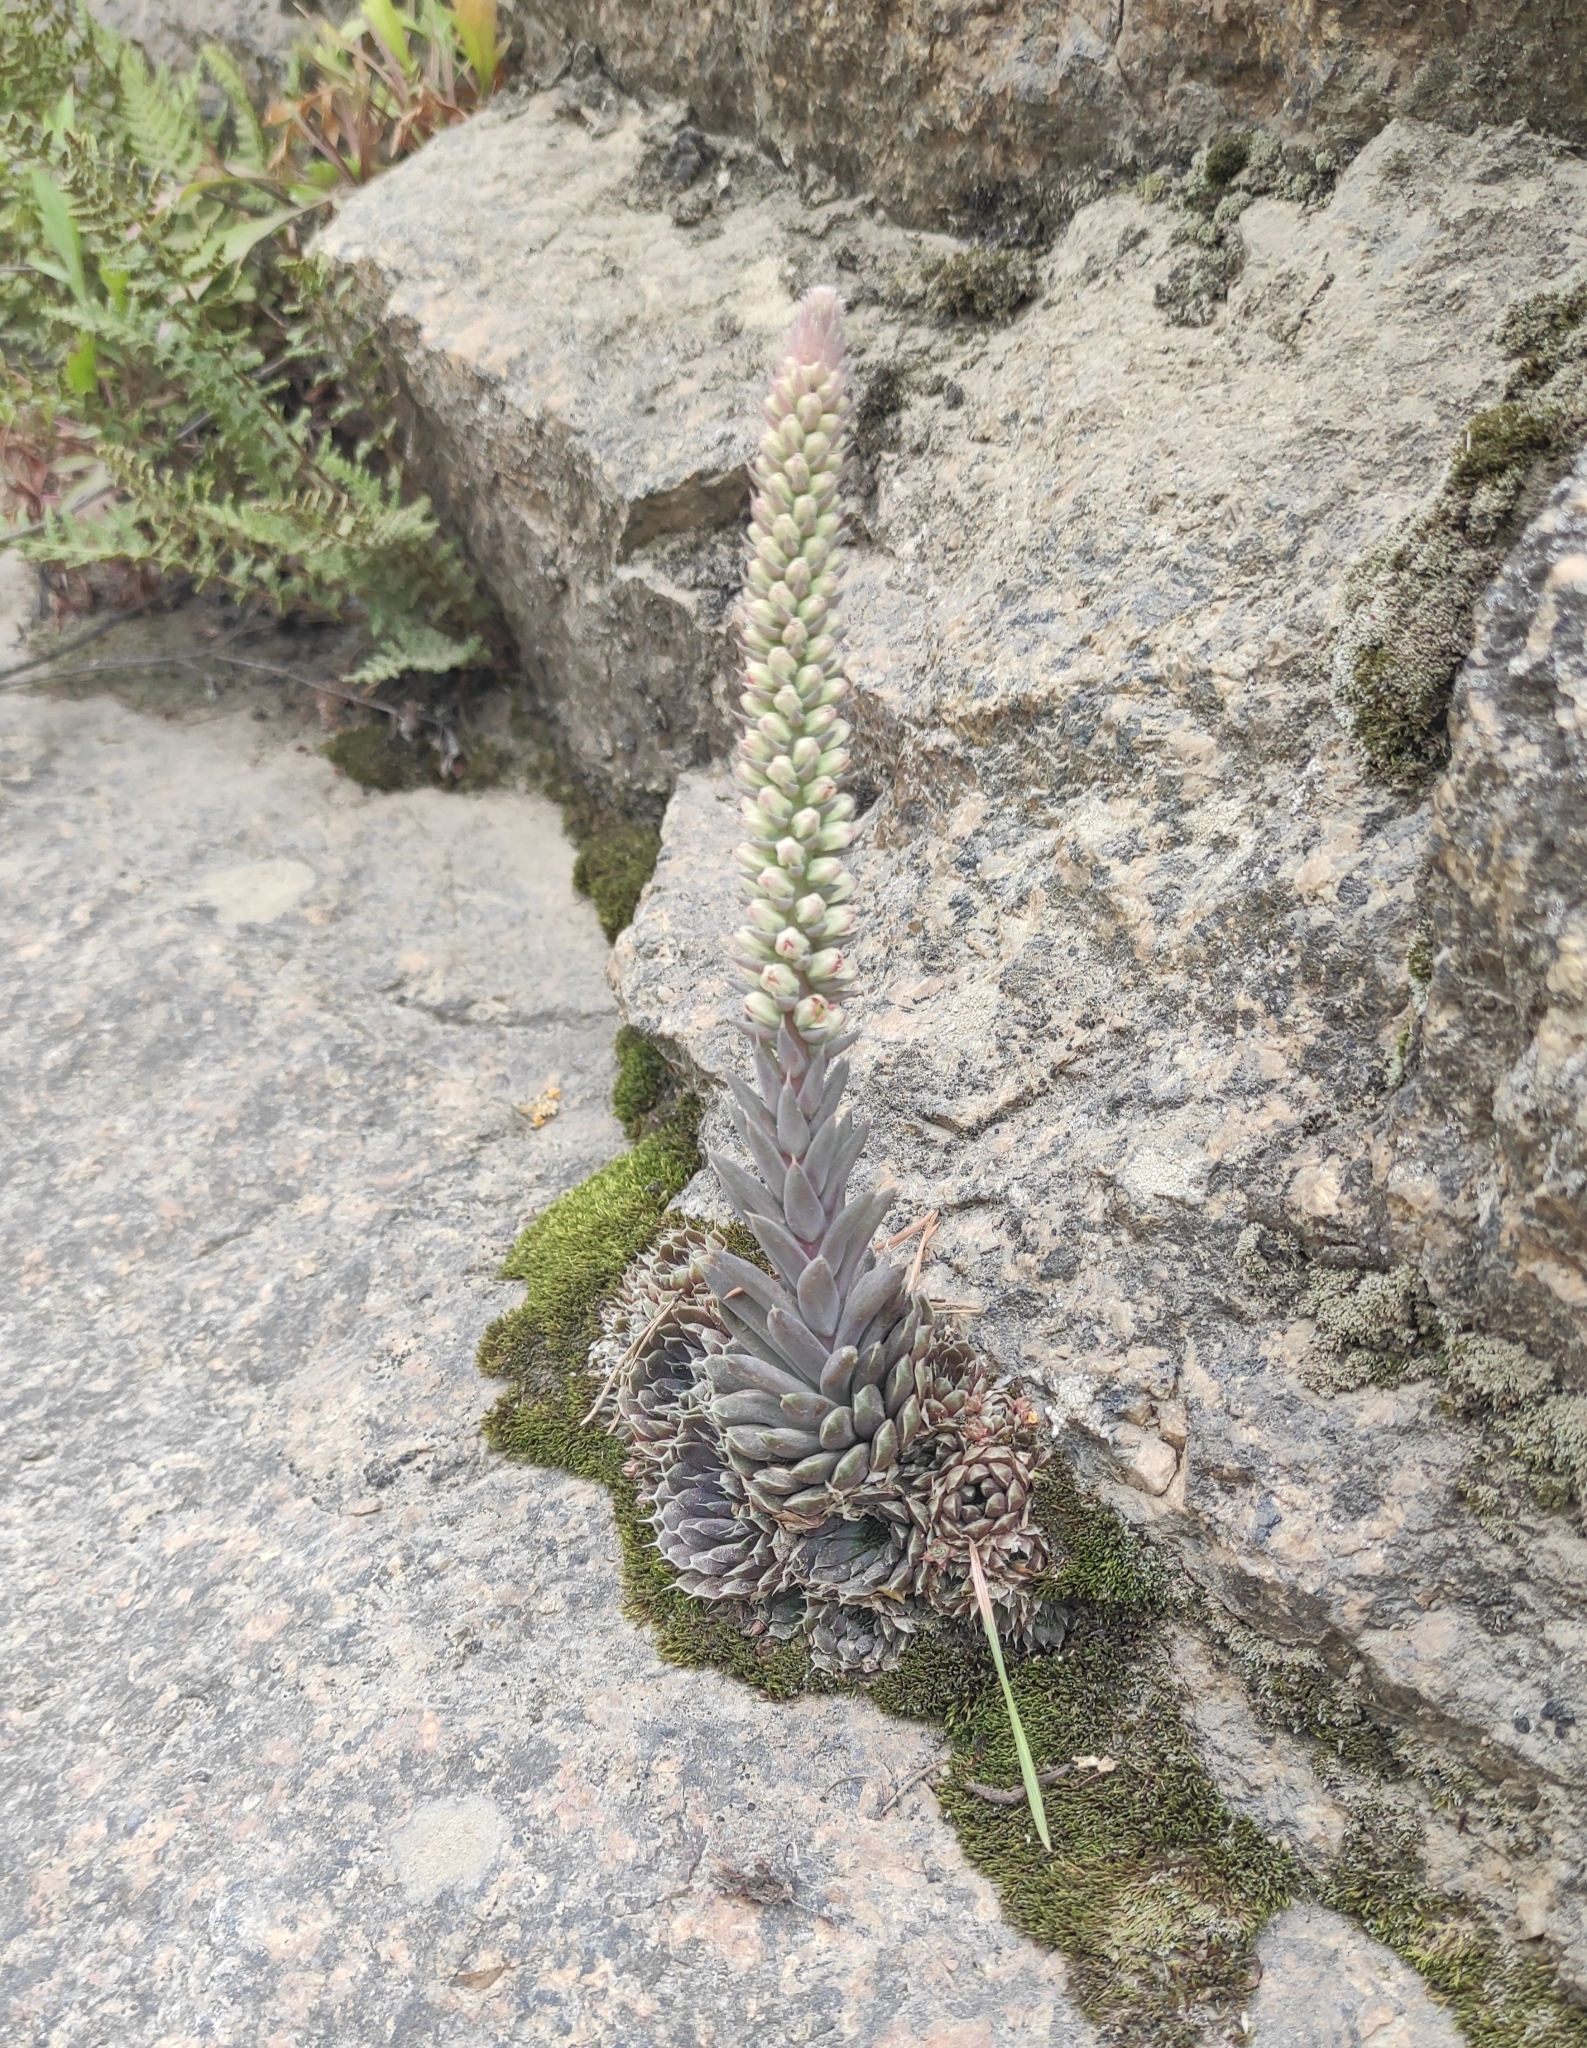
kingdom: Plantae
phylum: Tracheophyta
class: Magnoliopsida
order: Saxifragales
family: Crassulaceae
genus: Orostachys
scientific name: Orostachys spinosa
